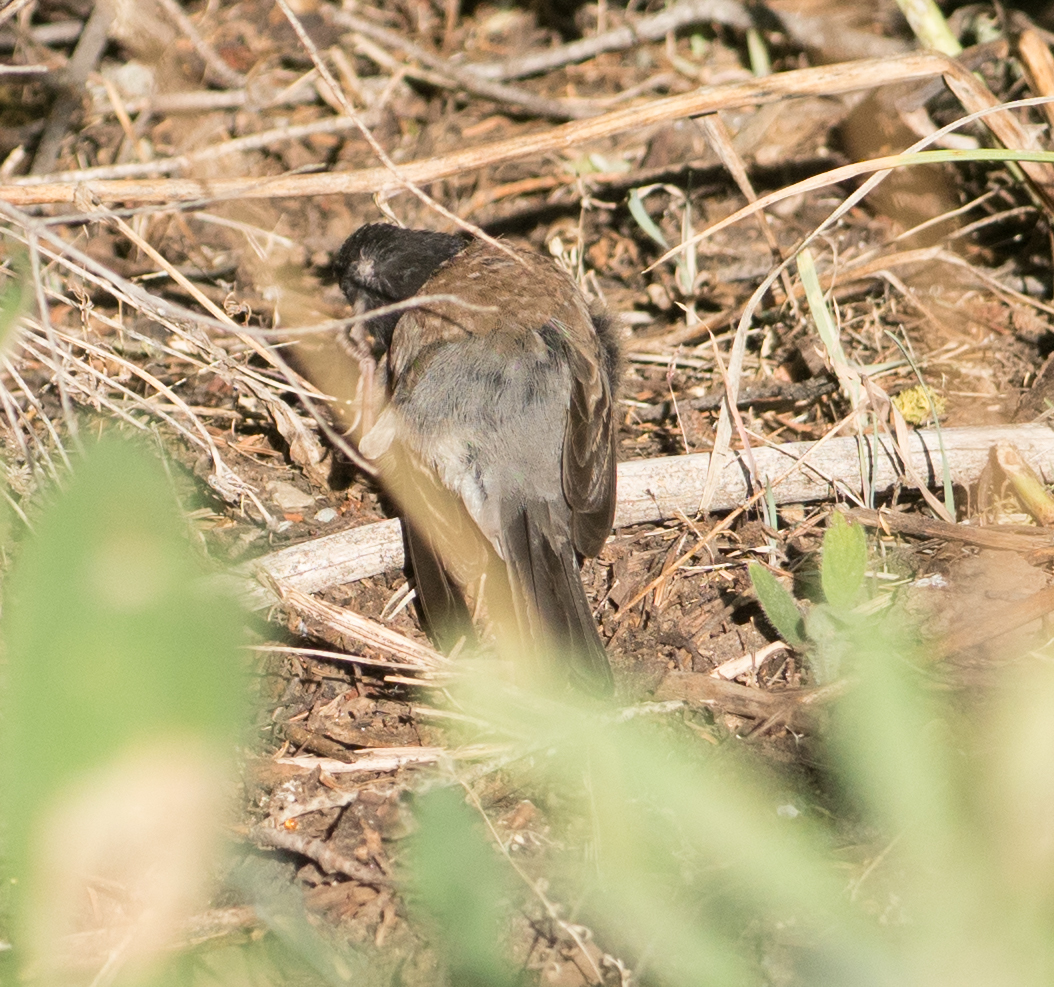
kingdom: Animalia
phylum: Chordata
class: Aves
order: Passeriformes
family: Passerellidae
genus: Junco
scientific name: Junco hyemalis
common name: Dark-eyed junco
